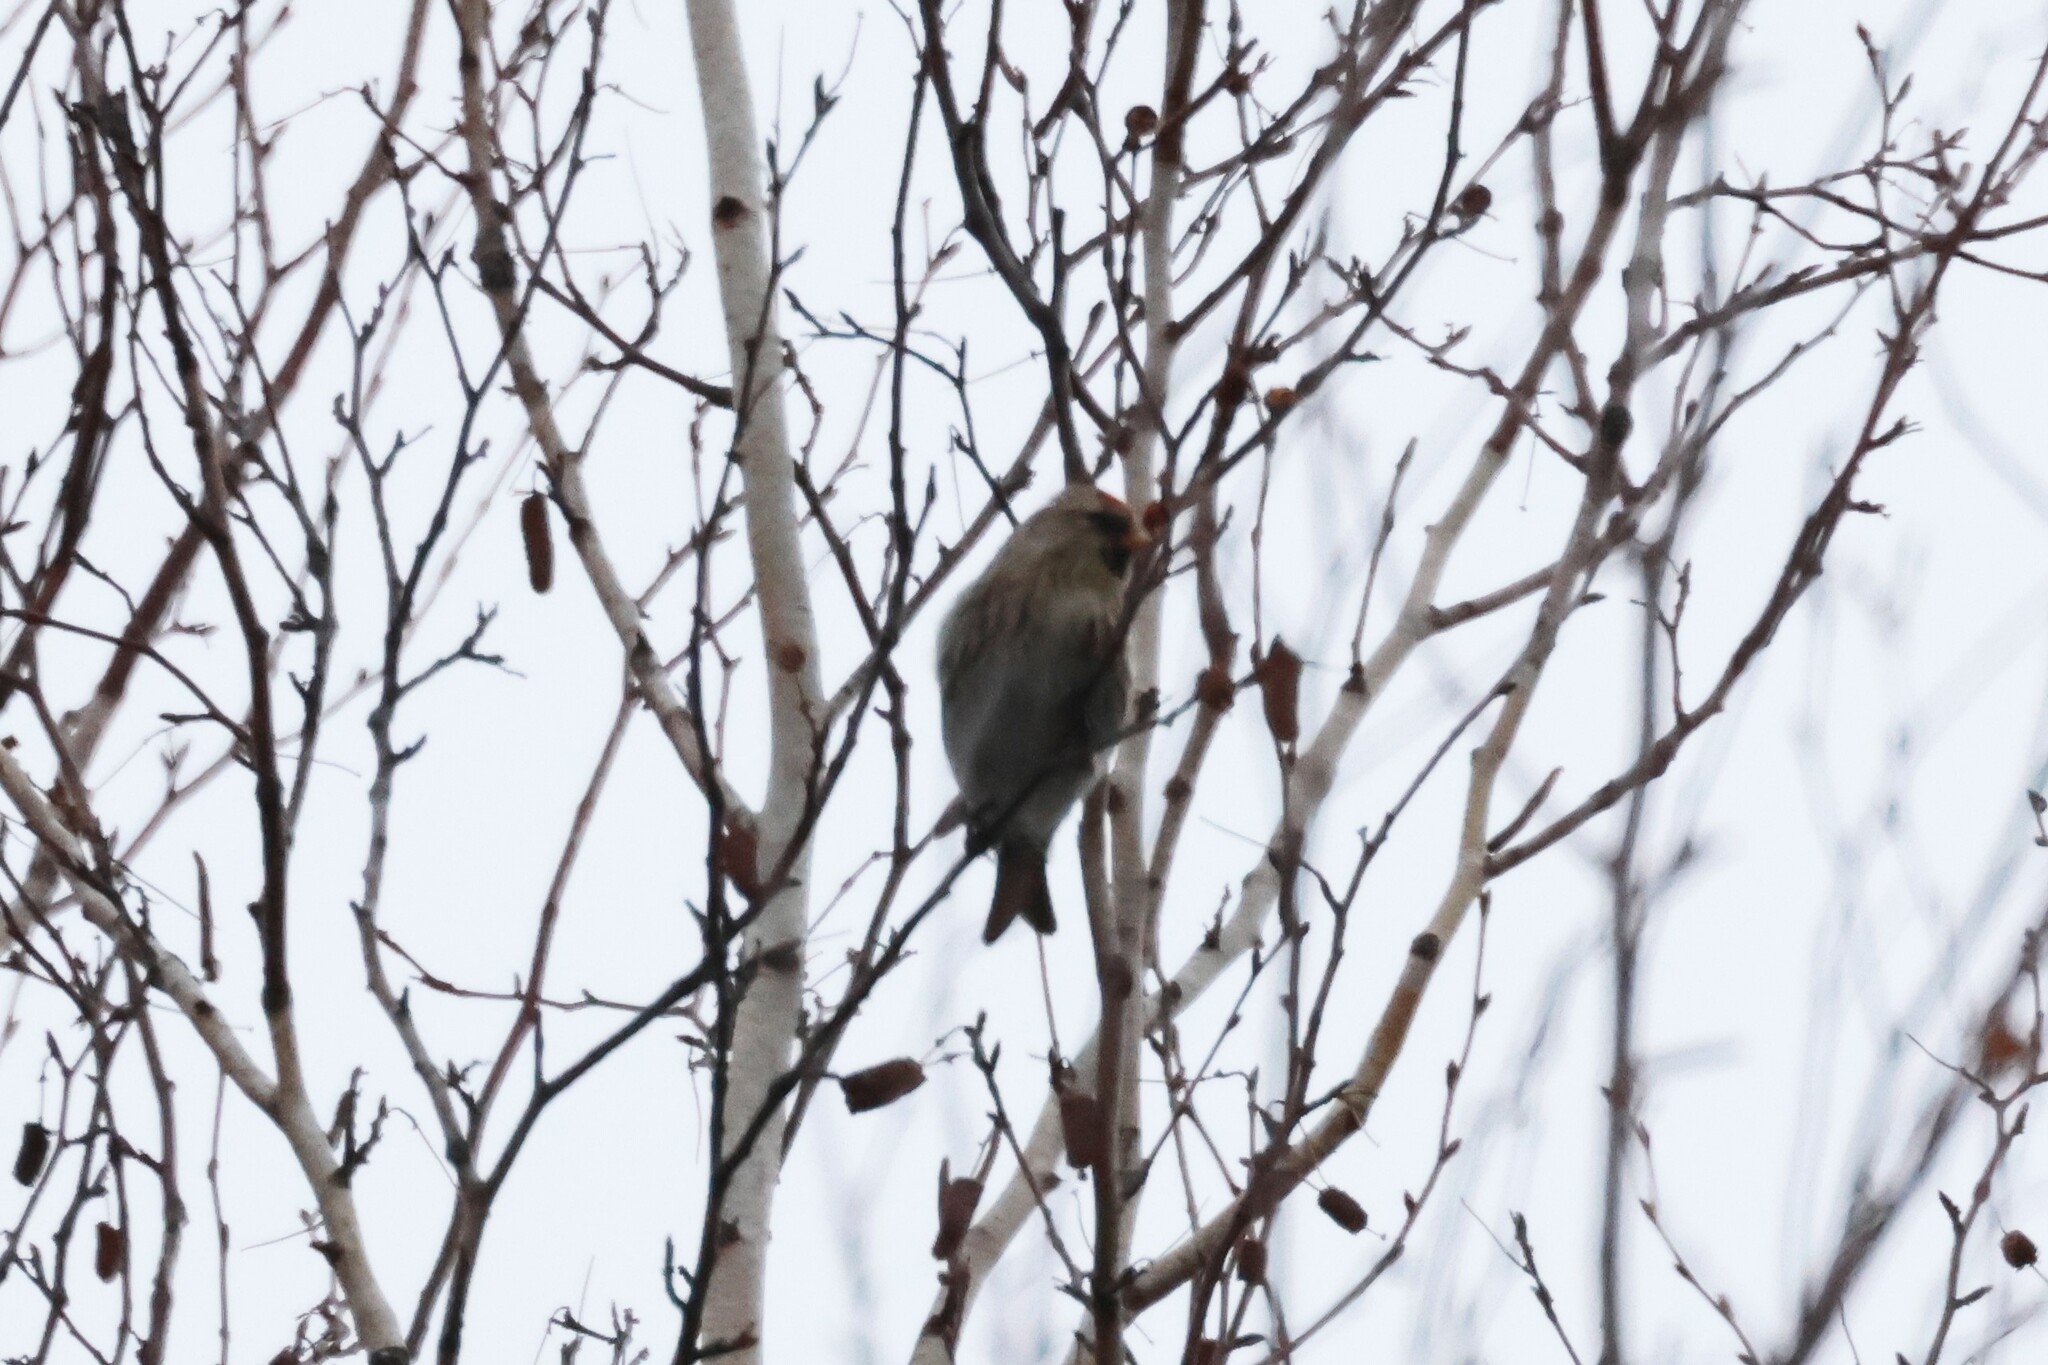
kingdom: Animalia
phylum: Chordata
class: Aves
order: Passeriformes
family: Fringillidae
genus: Acanthis
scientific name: Acanthis flammea
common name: Common redpoll
